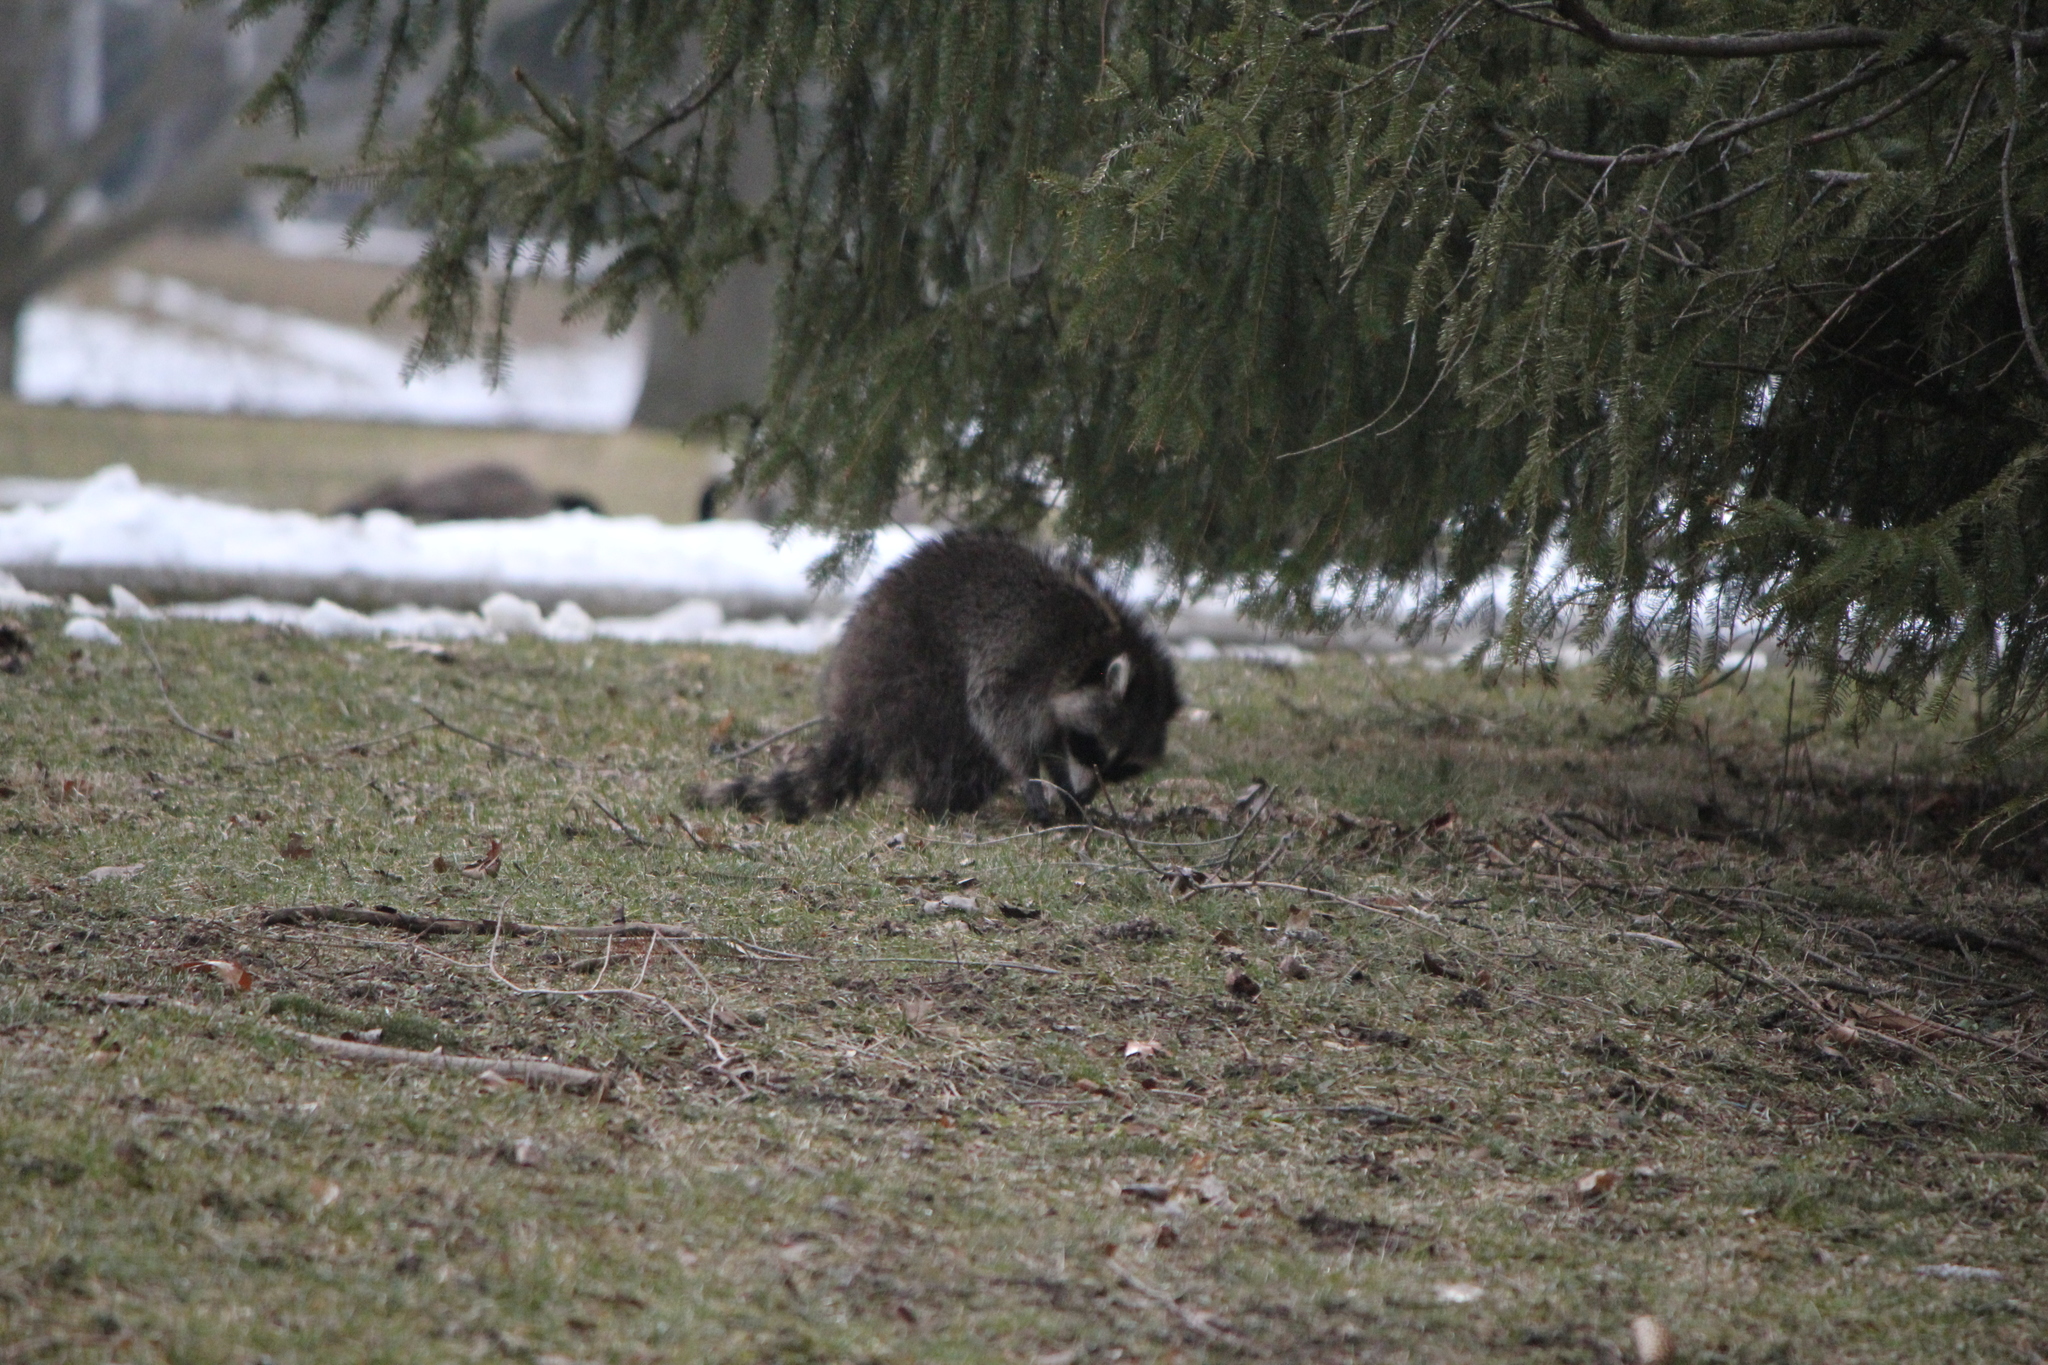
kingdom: Animalia
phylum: Chordata
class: Mammalia
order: Carnivora
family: Procyonidae
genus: Procyon
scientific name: Procyon lotor
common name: Raccoon
